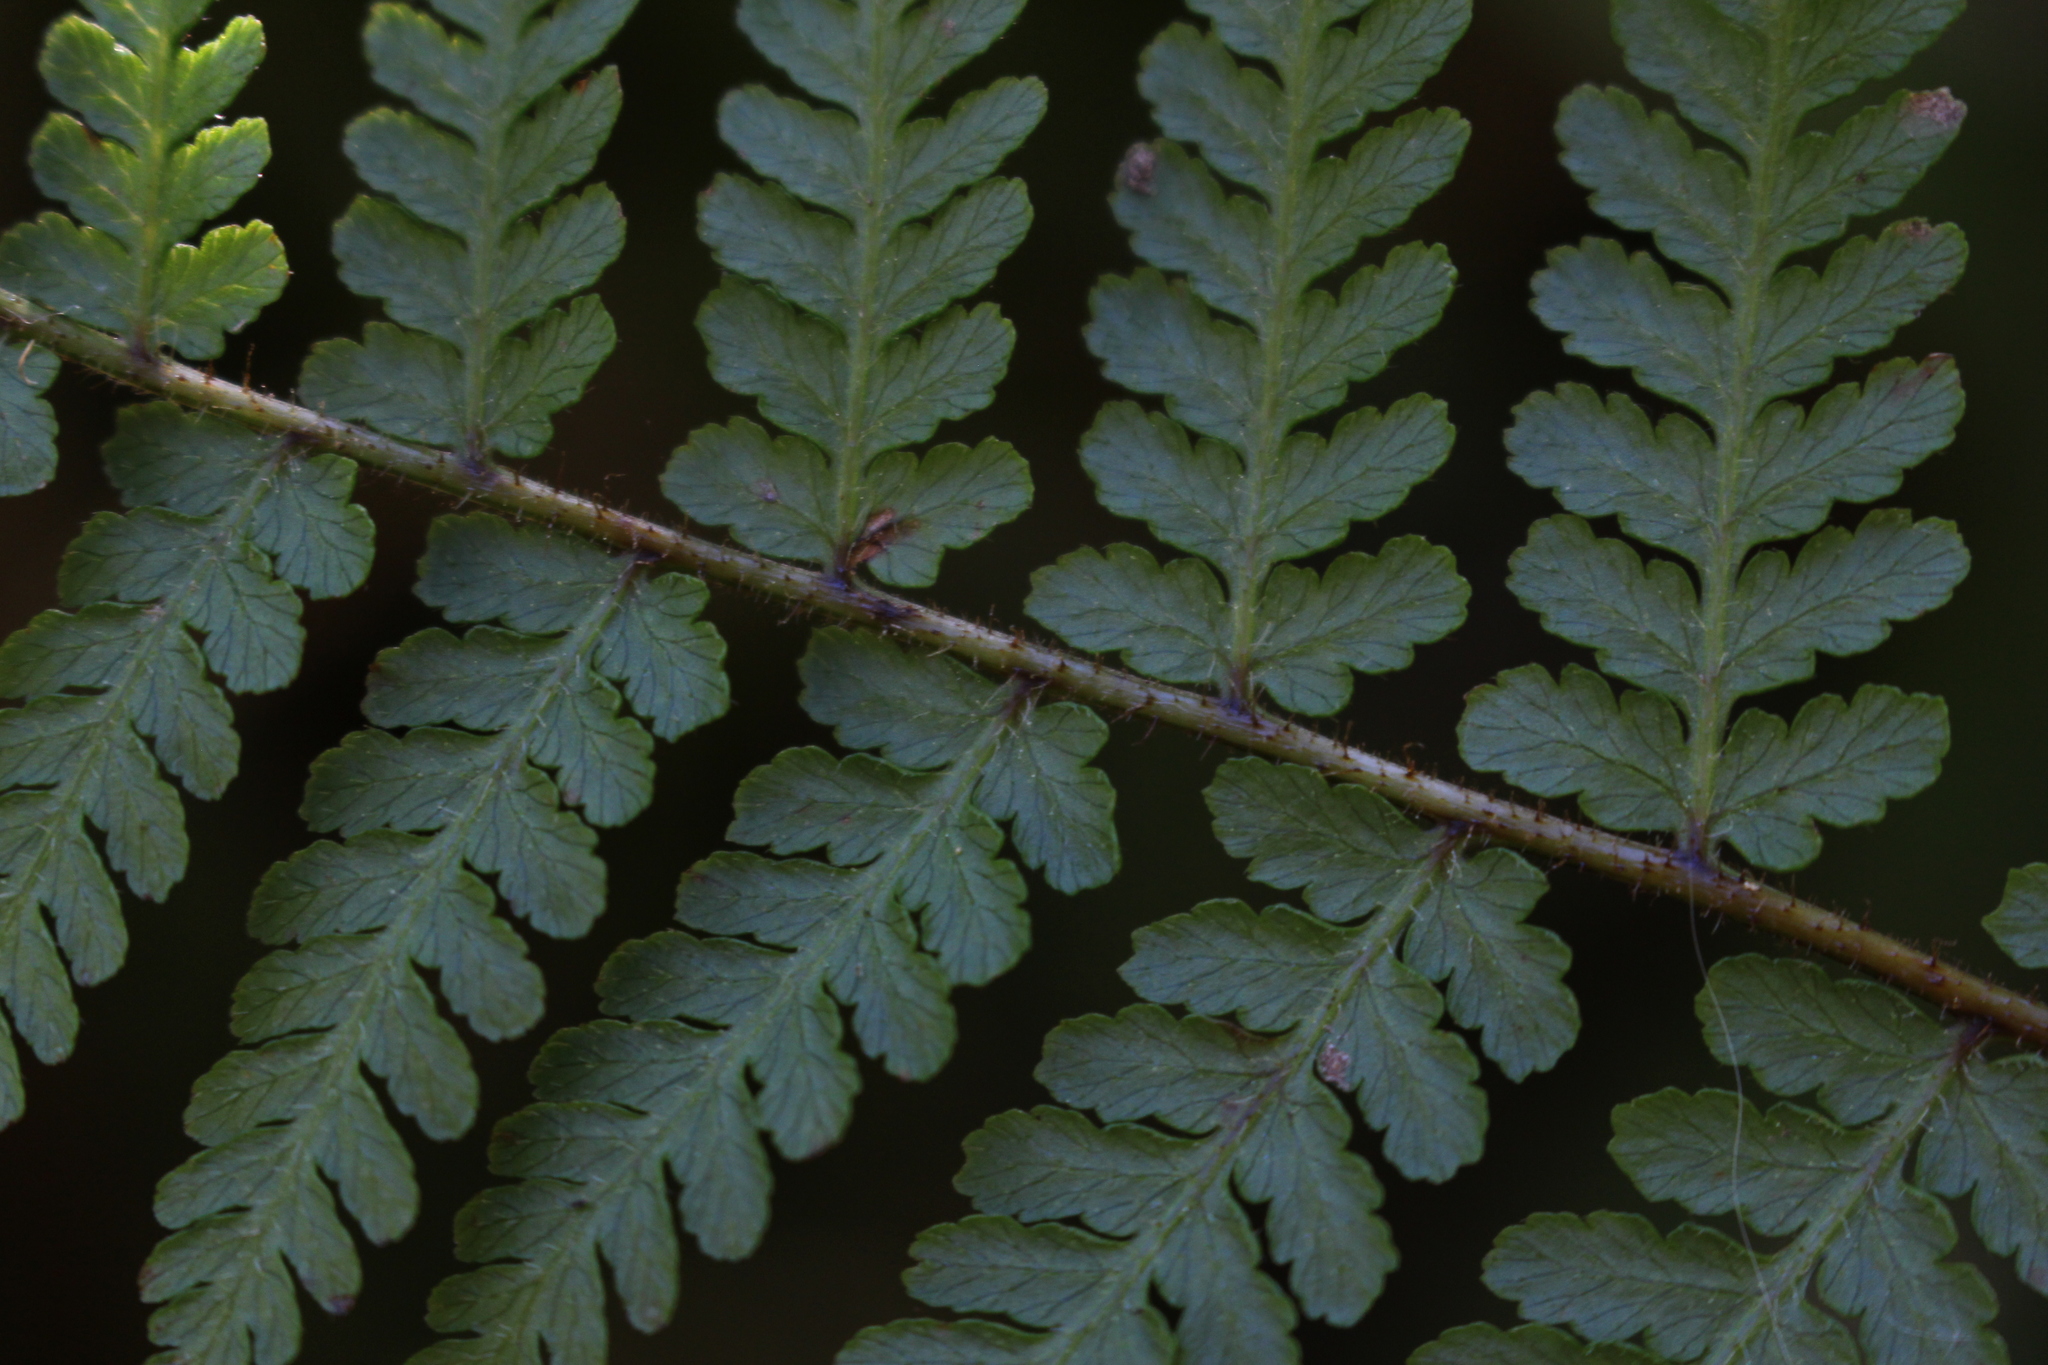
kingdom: Plantae
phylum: Tracheophyta
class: Polypodiopsida
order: Polypodiales
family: Dennstaedtiaceae
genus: Hypolepis
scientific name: Hypolepis ambigua
